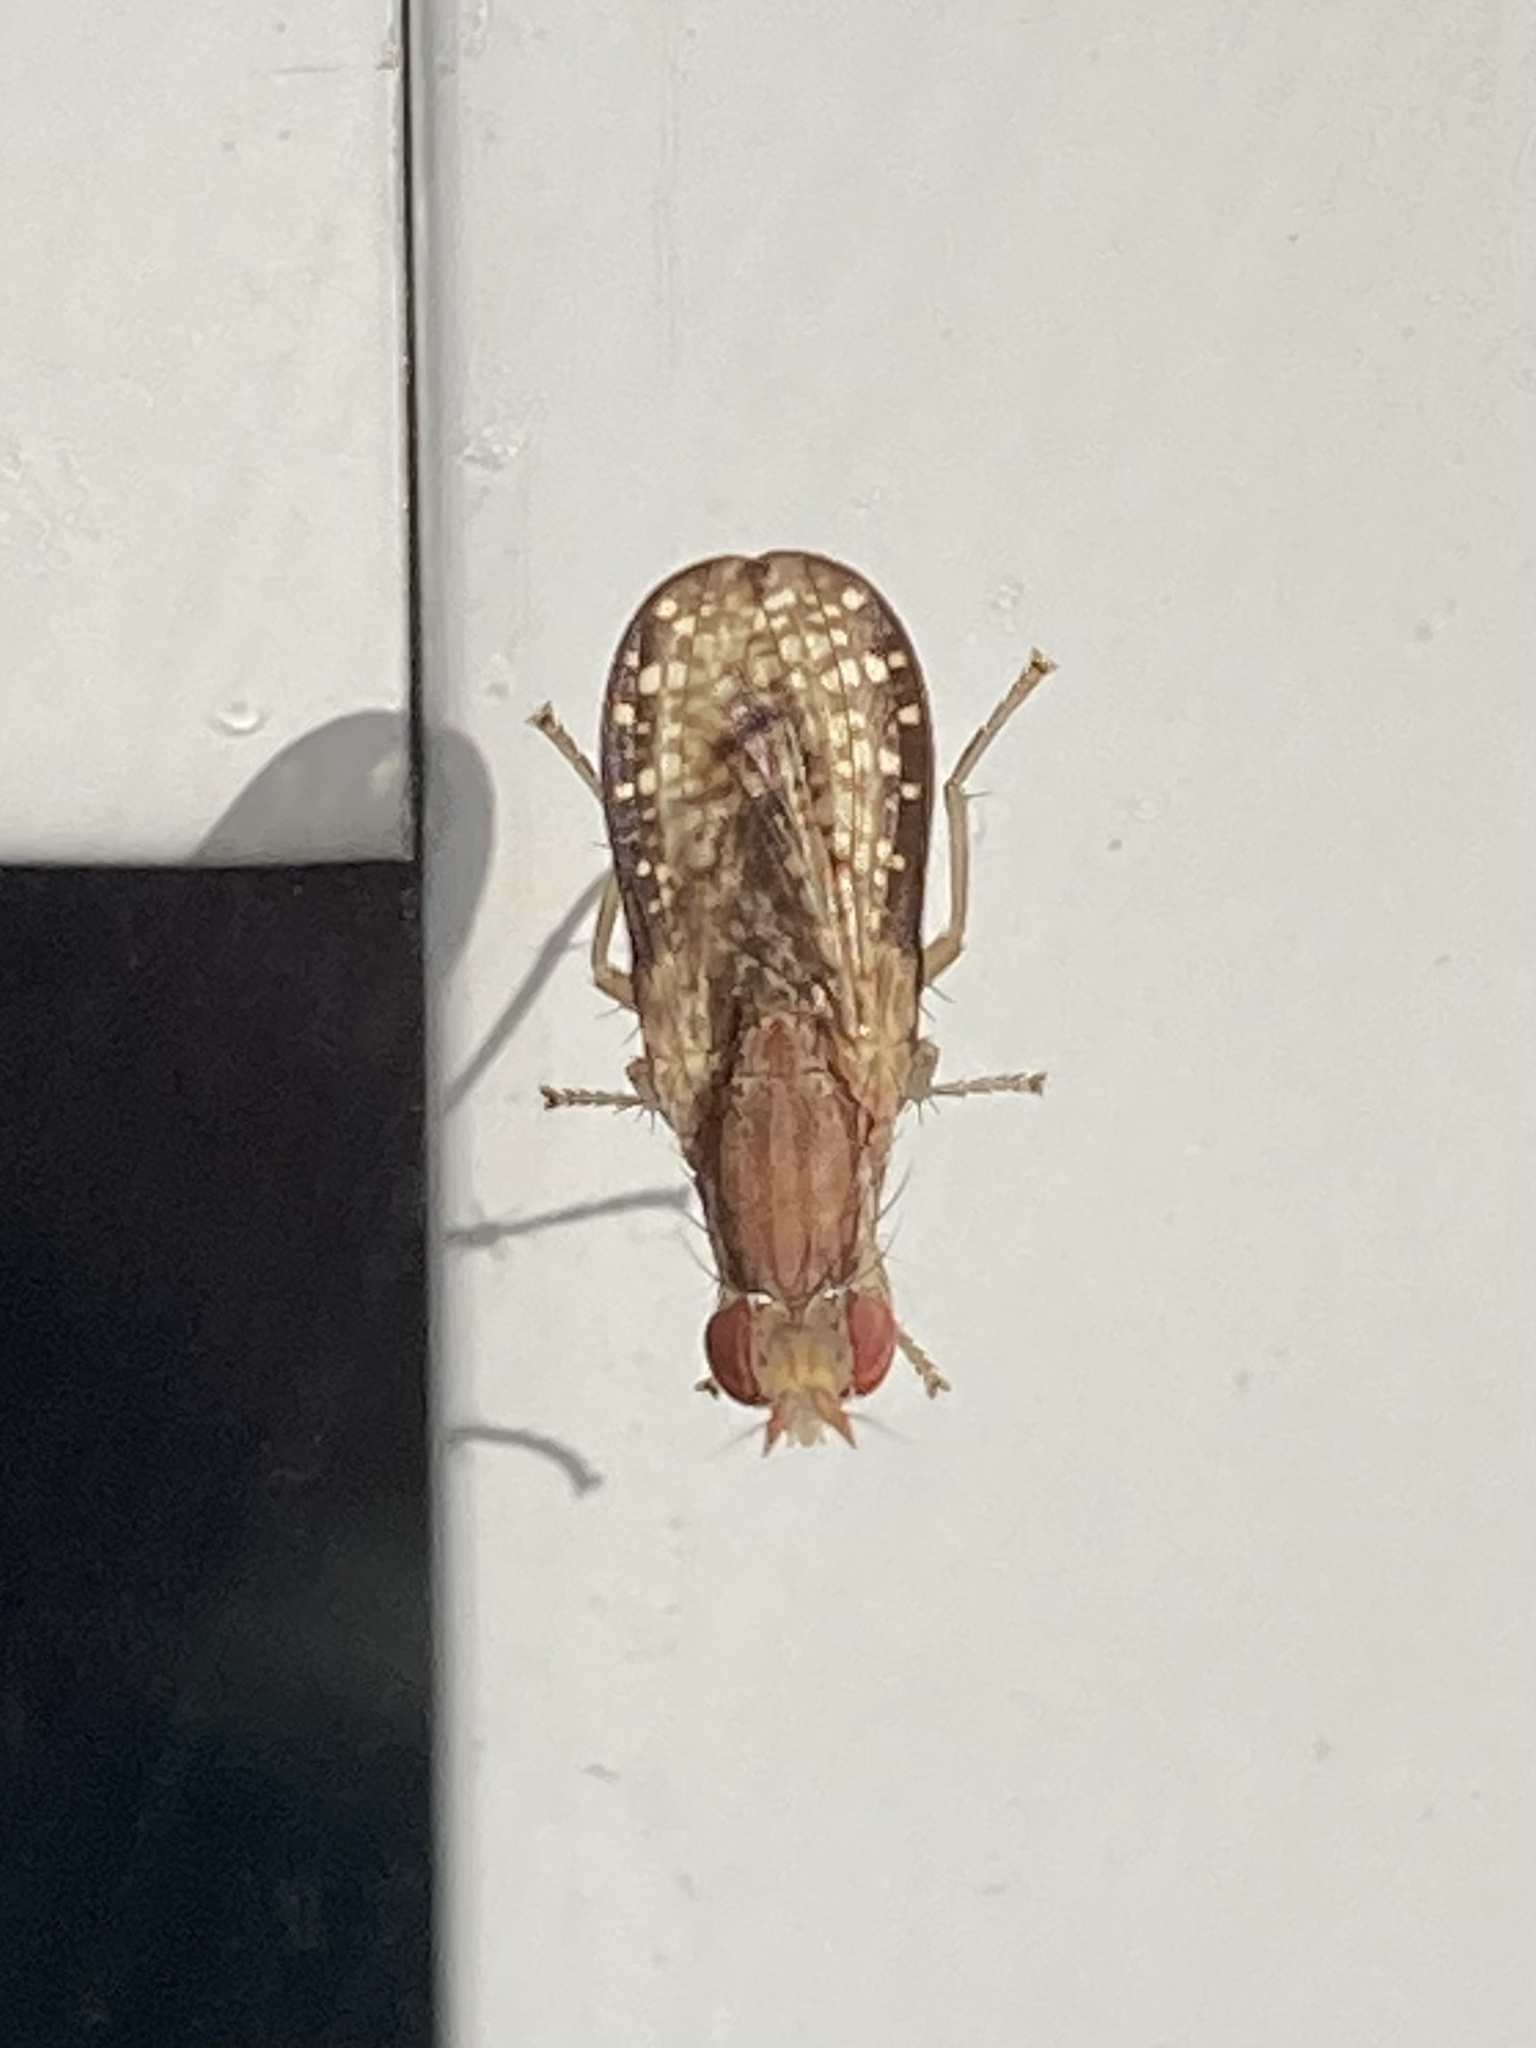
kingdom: Animalia
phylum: Arthropoda
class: Insecta
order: Diptera
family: Sciomyzidae
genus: Trypetoptera
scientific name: Trypetoptera canadensis
